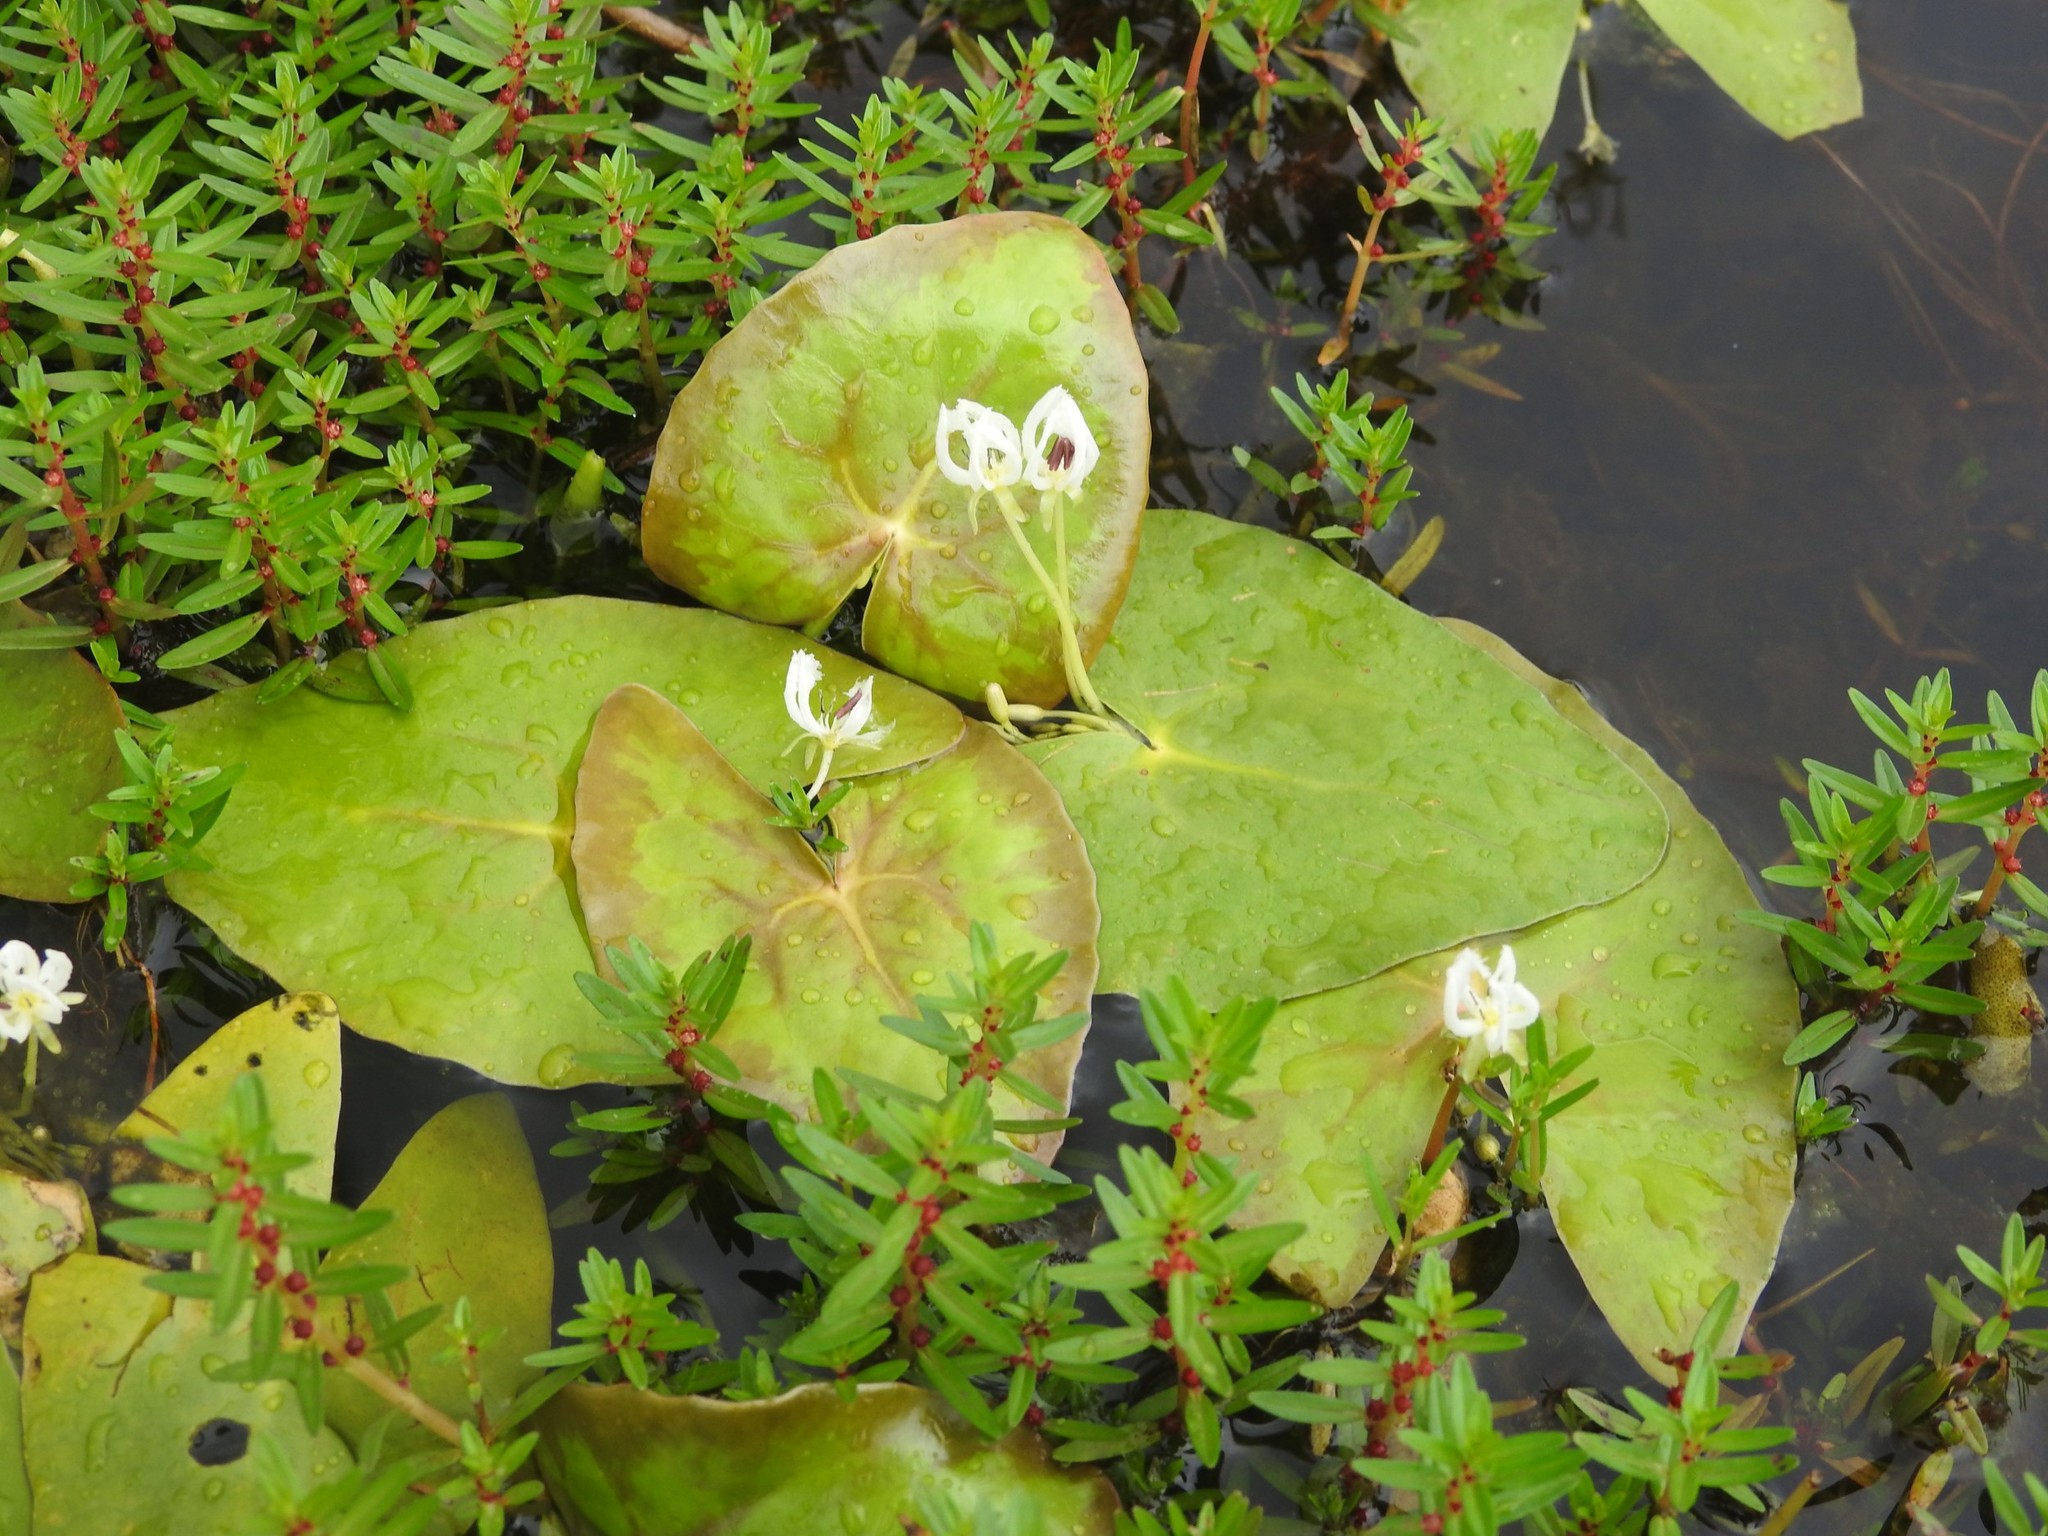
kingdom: Plantae
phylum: Tracheophyta
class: Magnoliopsida
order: Asterales
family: Menyanthaceae
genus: Nymphoides
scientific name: Nymphoides krishnakesara
